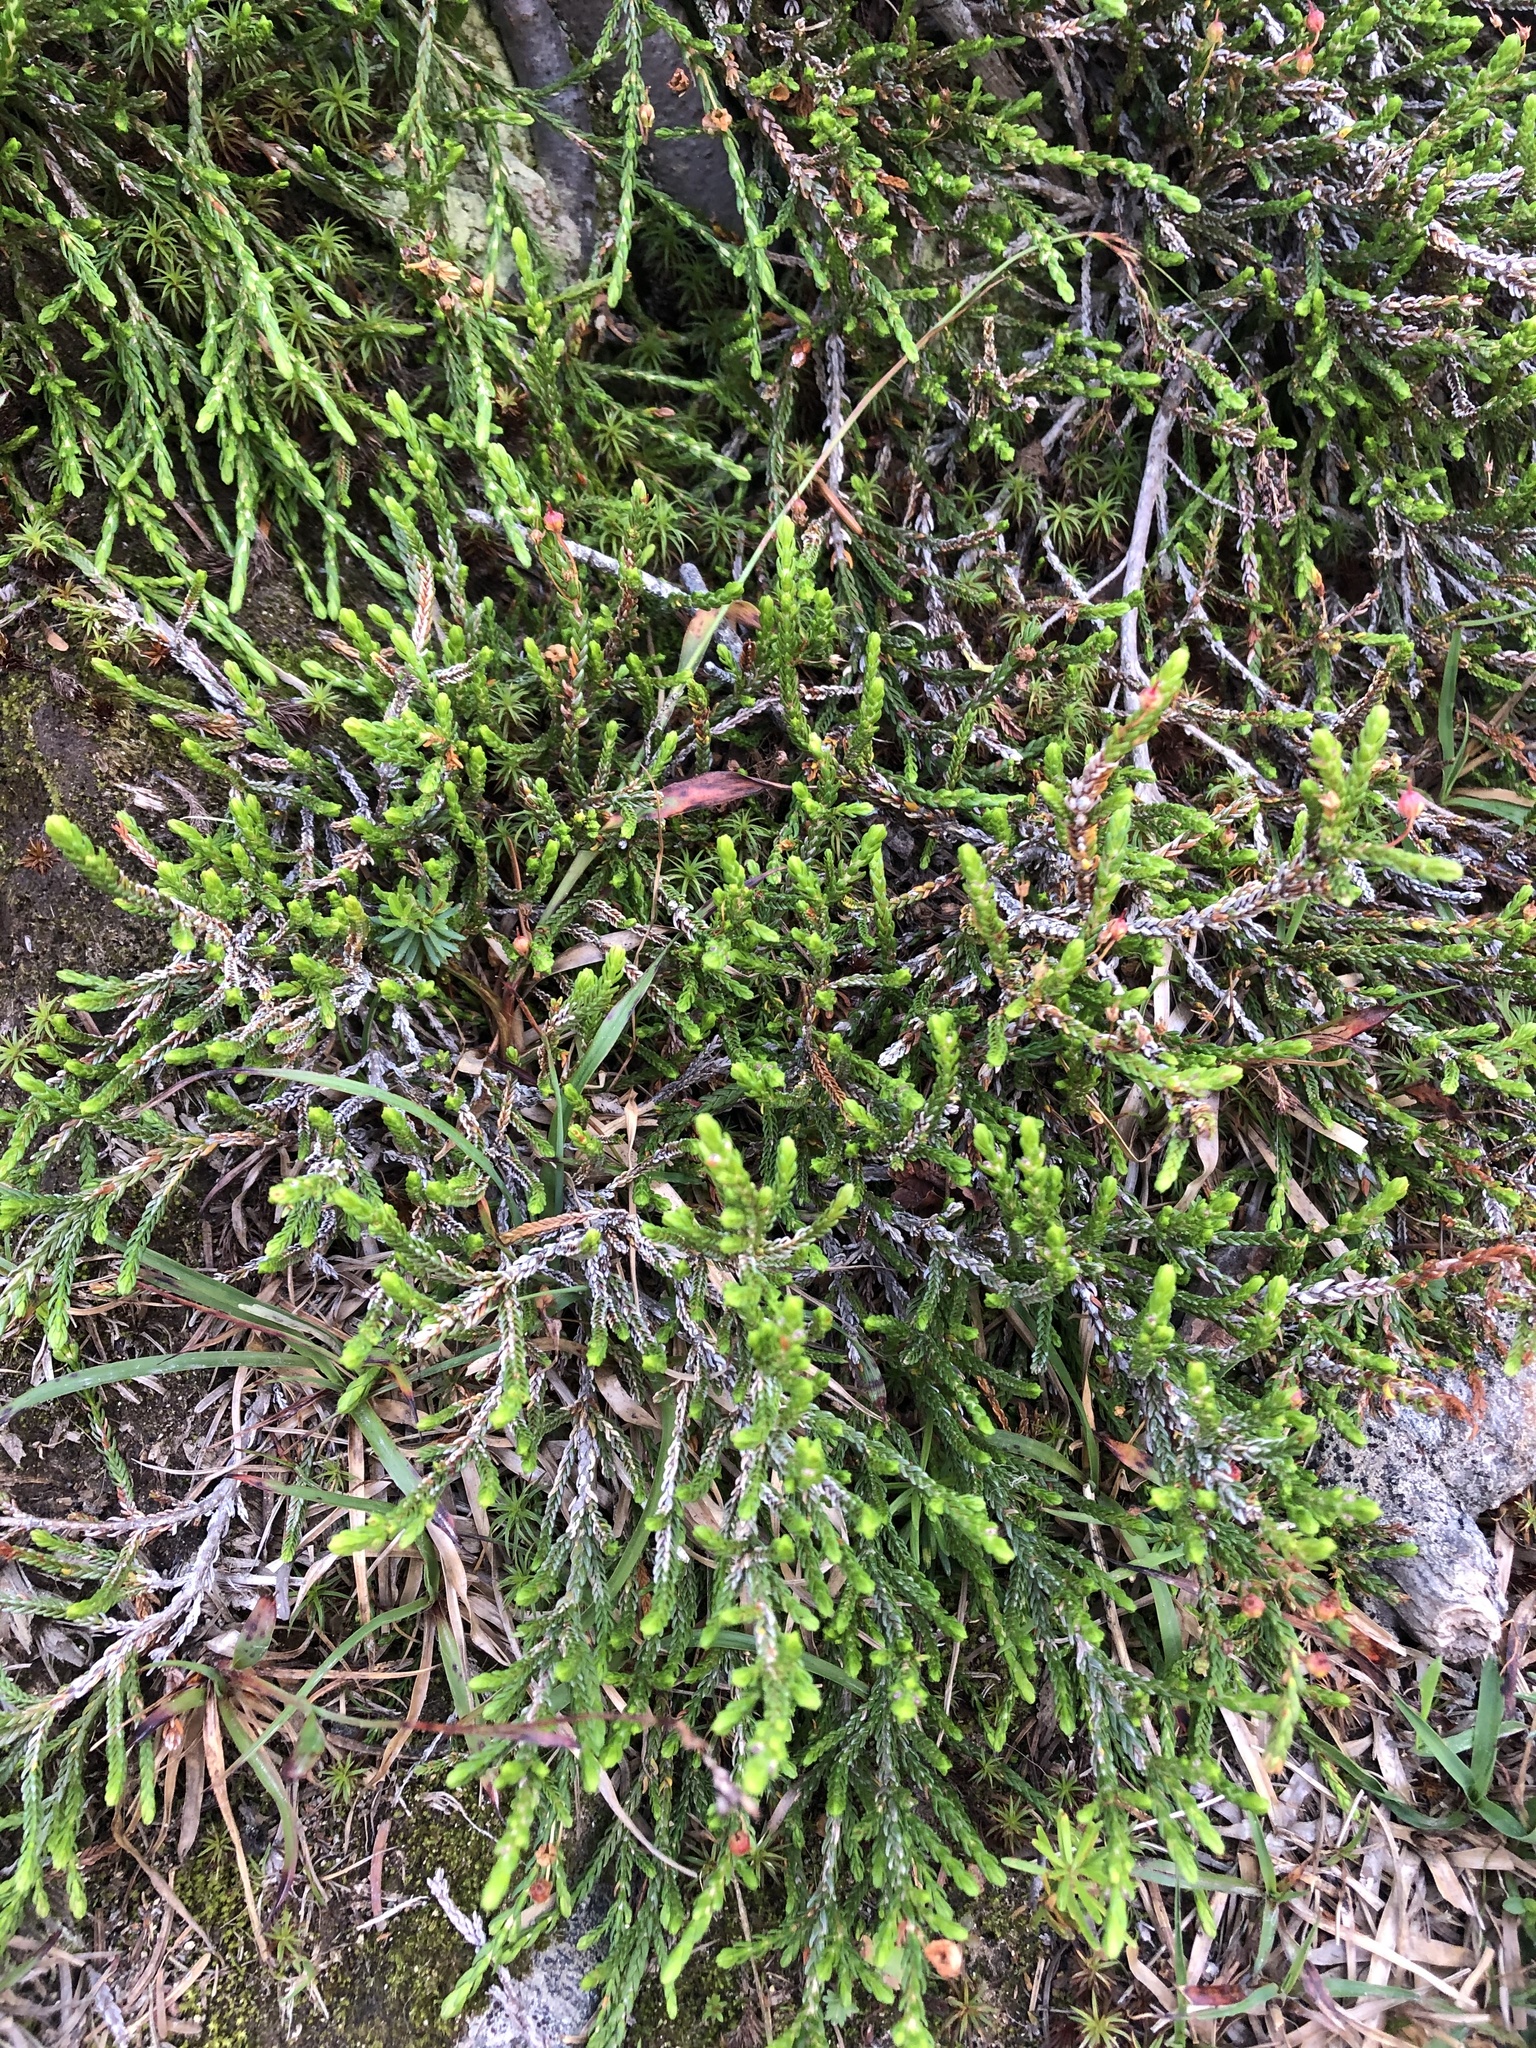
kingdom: Plantae
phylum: Tracheophyta
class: Magnoliopsida
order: Ericales
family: Ericaceae
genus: Cassiope
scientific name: Cassiope mertensiana
